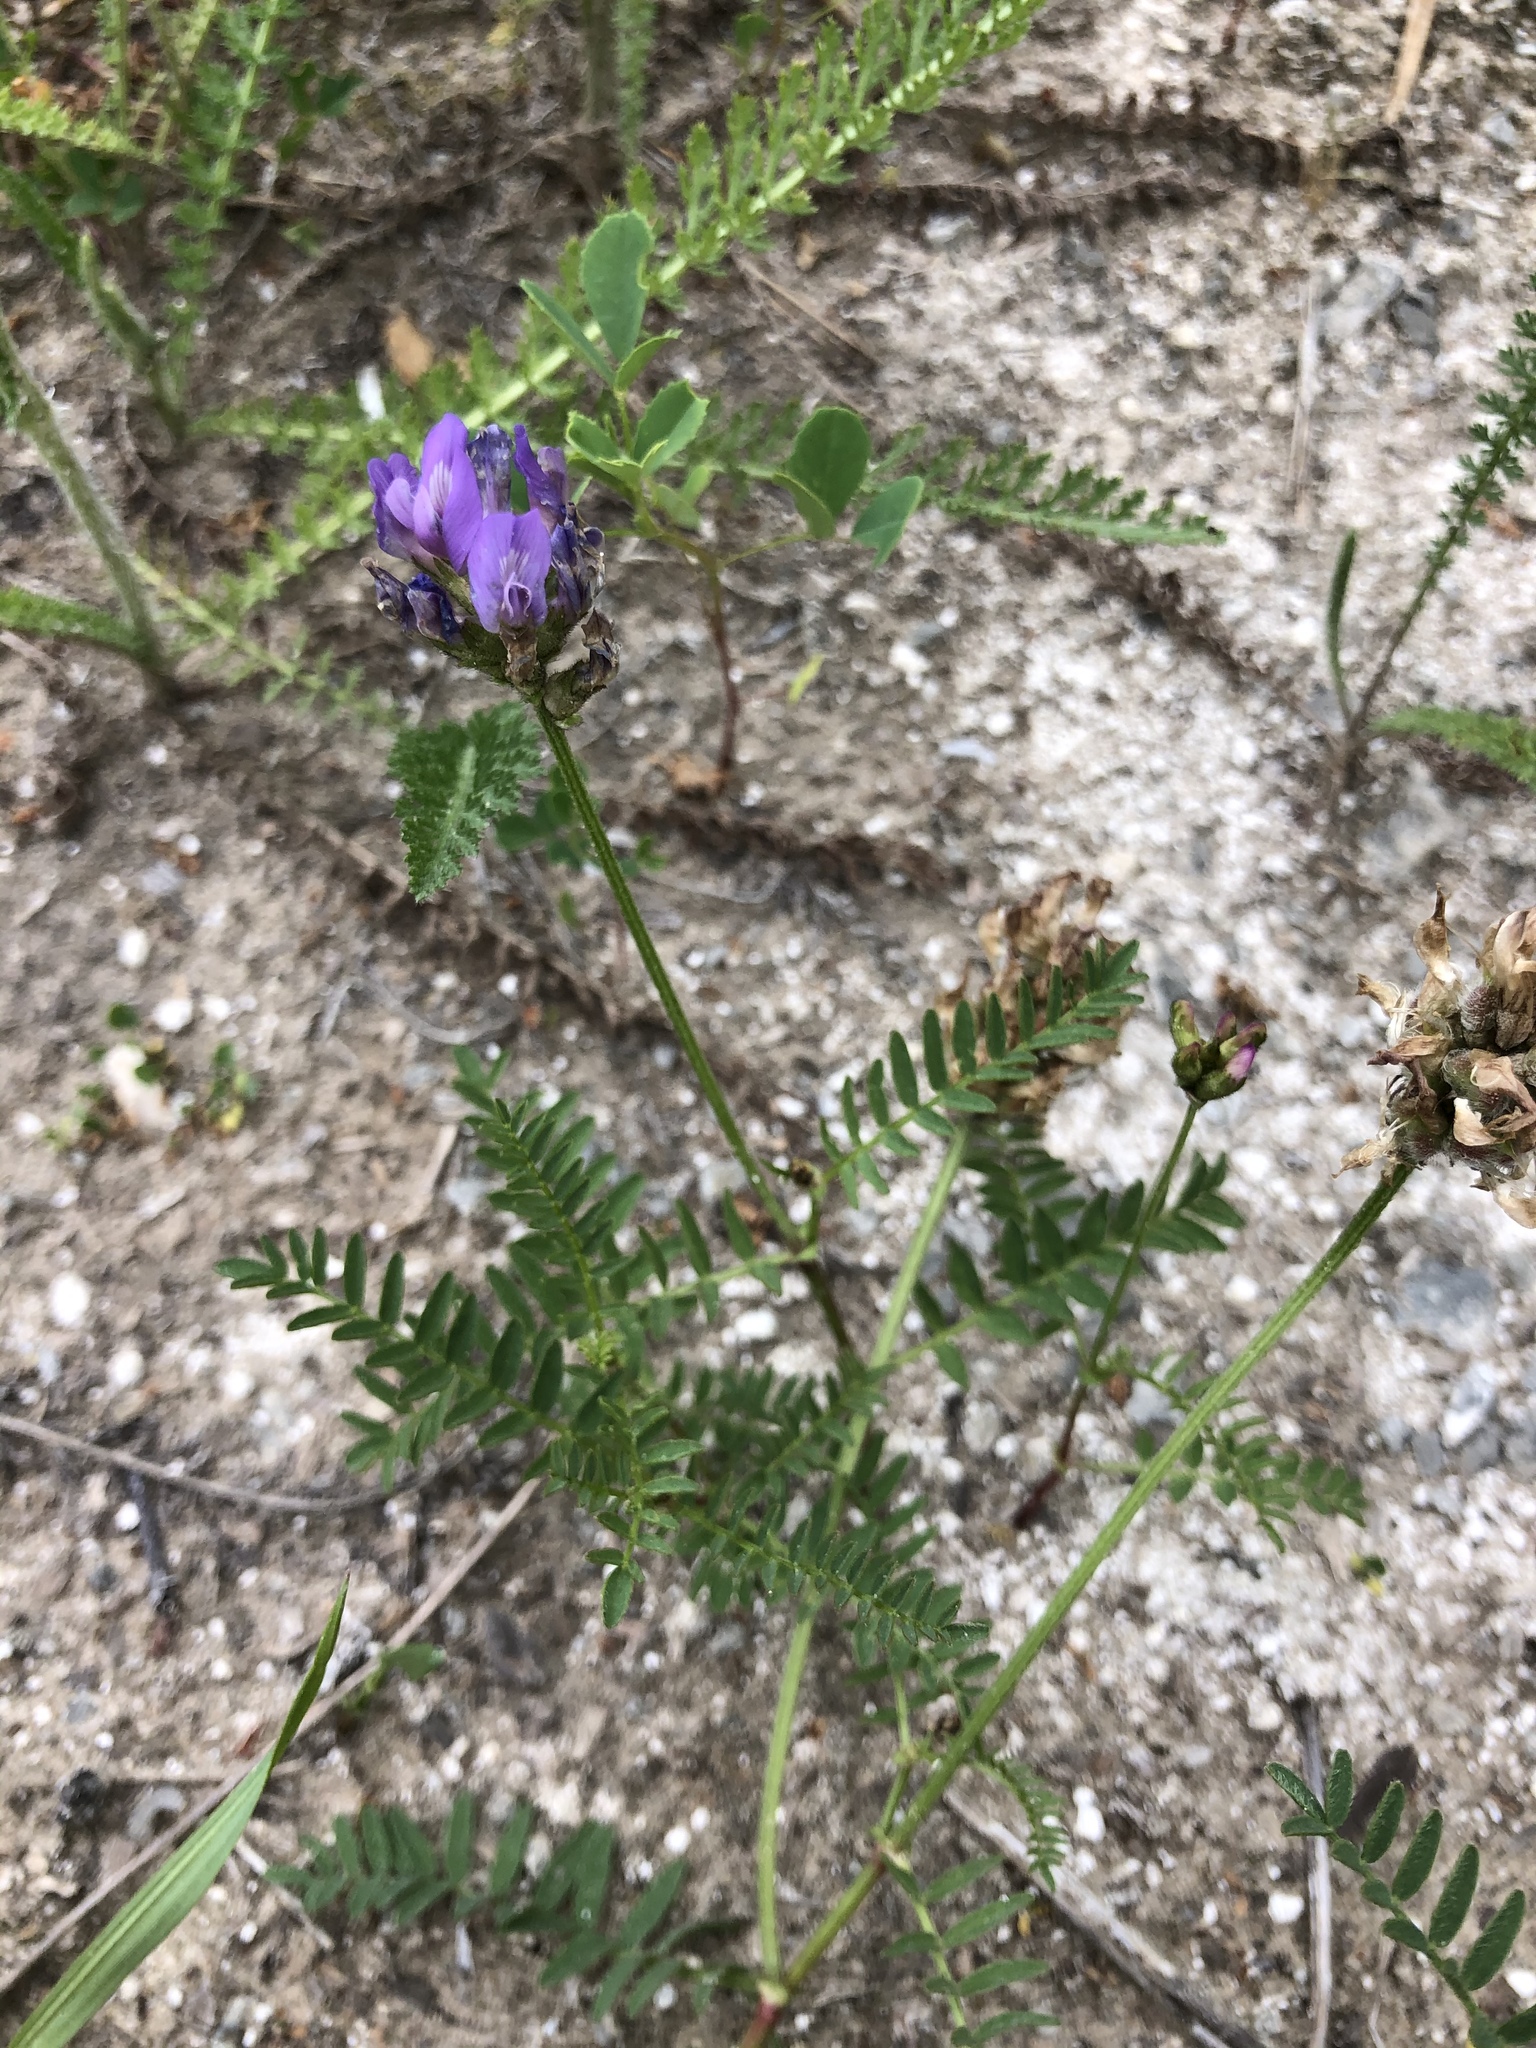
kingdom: Plantae
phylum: Tracheophyta
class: Magnoliopsida
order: Fabales
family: Fabaceae
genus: Astragalus
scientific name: Astragalus danicus
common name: Purple milk-vetch
